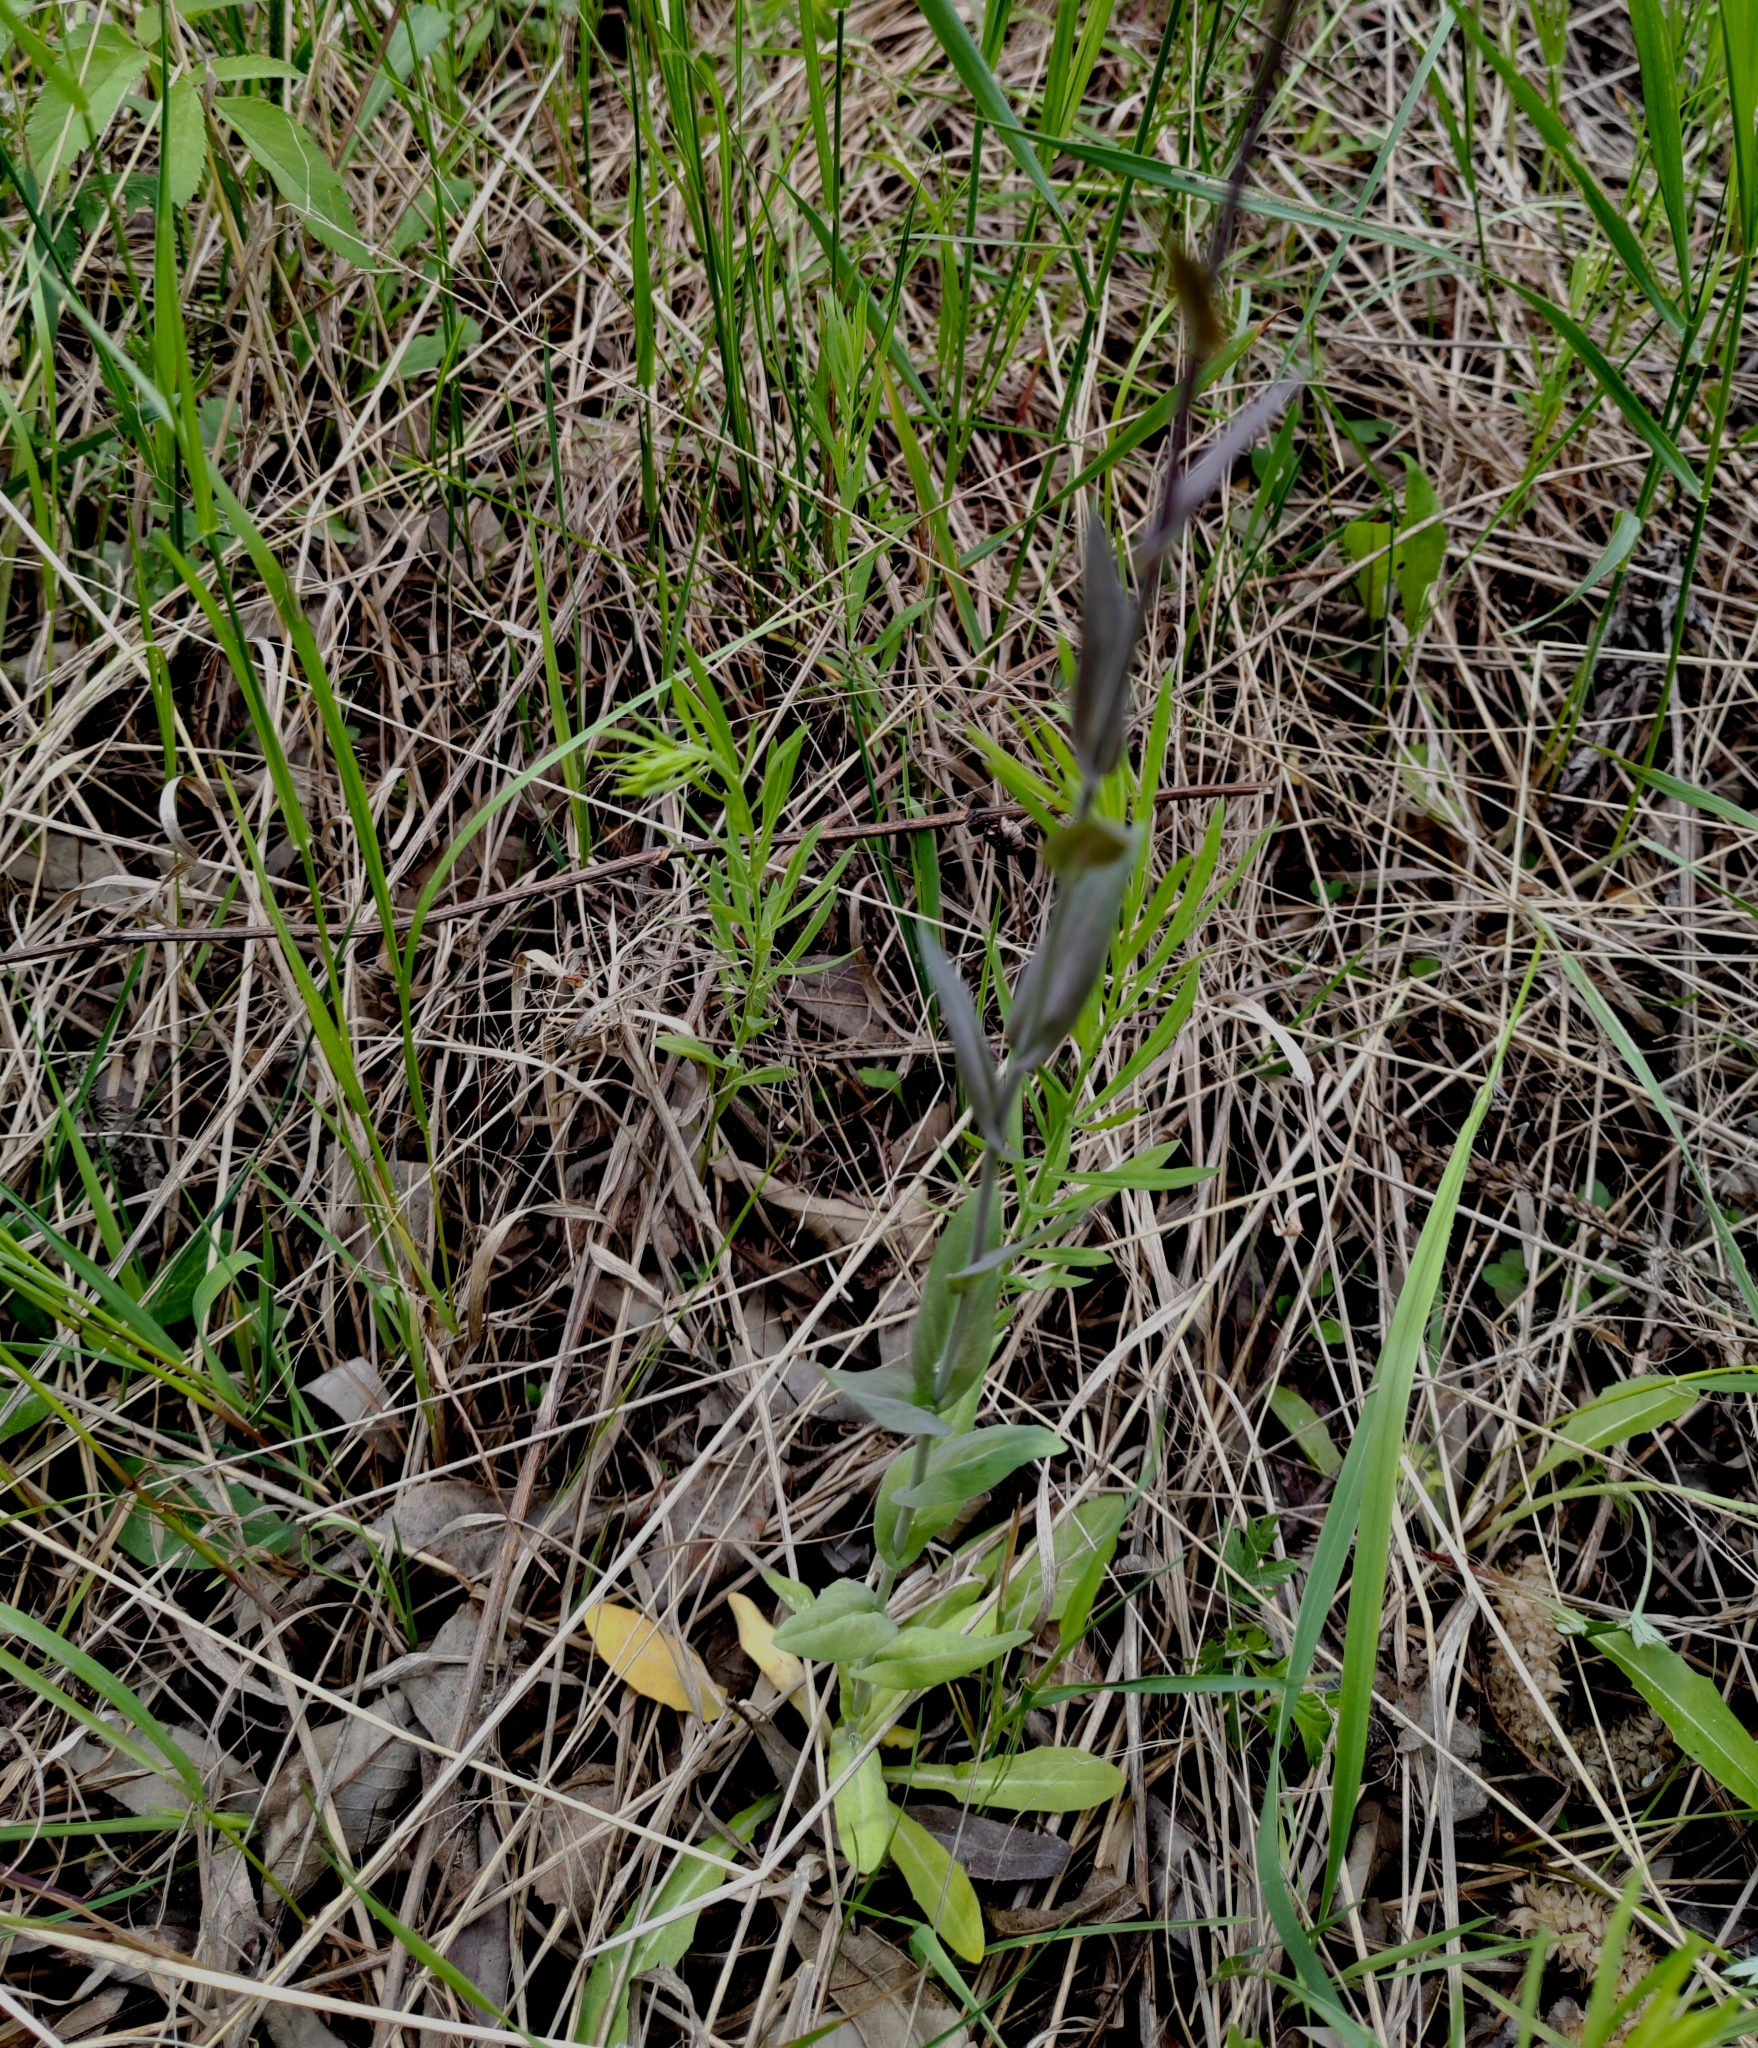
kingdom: Plantae
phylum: Tracheophyta
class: Magnoliopsida
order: Brassicales
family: Brassicaceae
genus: Turritis
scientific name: Turritis glabra
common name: Tower rockcress
